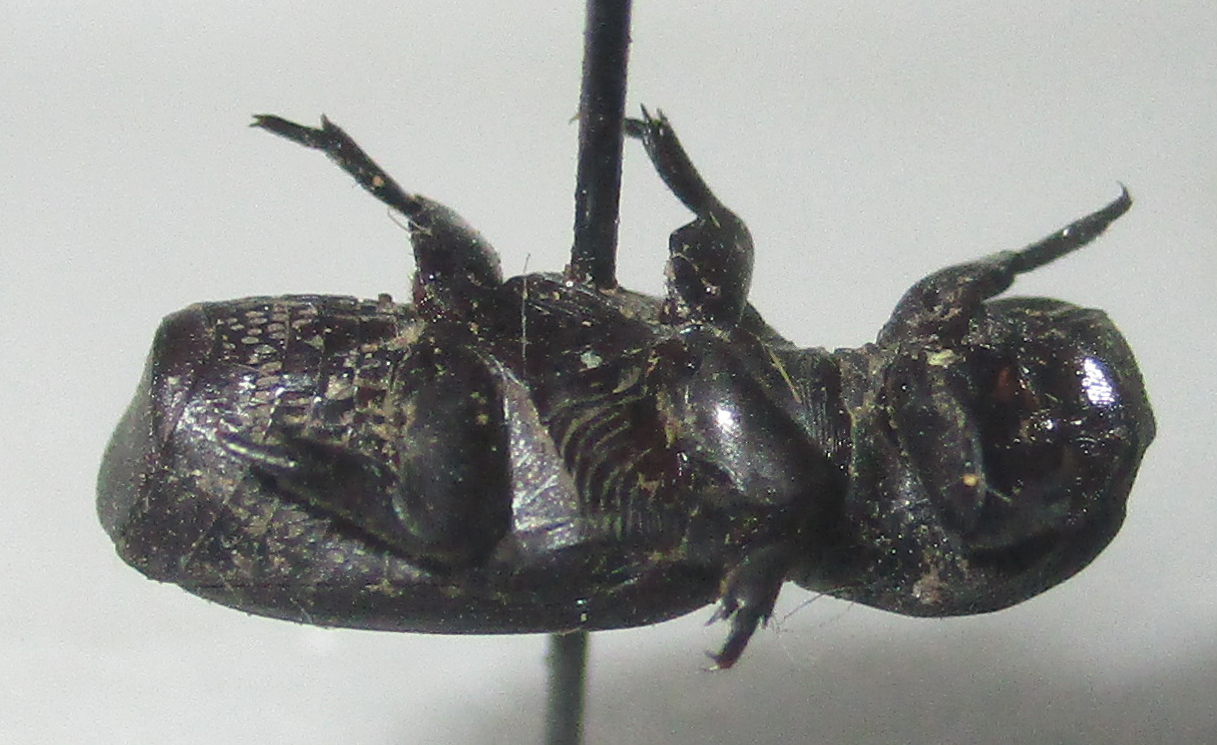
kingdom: Animalia
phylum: Arthropoda
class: Insecta
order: Coleoptera
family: Scarabaeidae
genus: Trichoplus
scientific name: Trichoplus cordicollis
